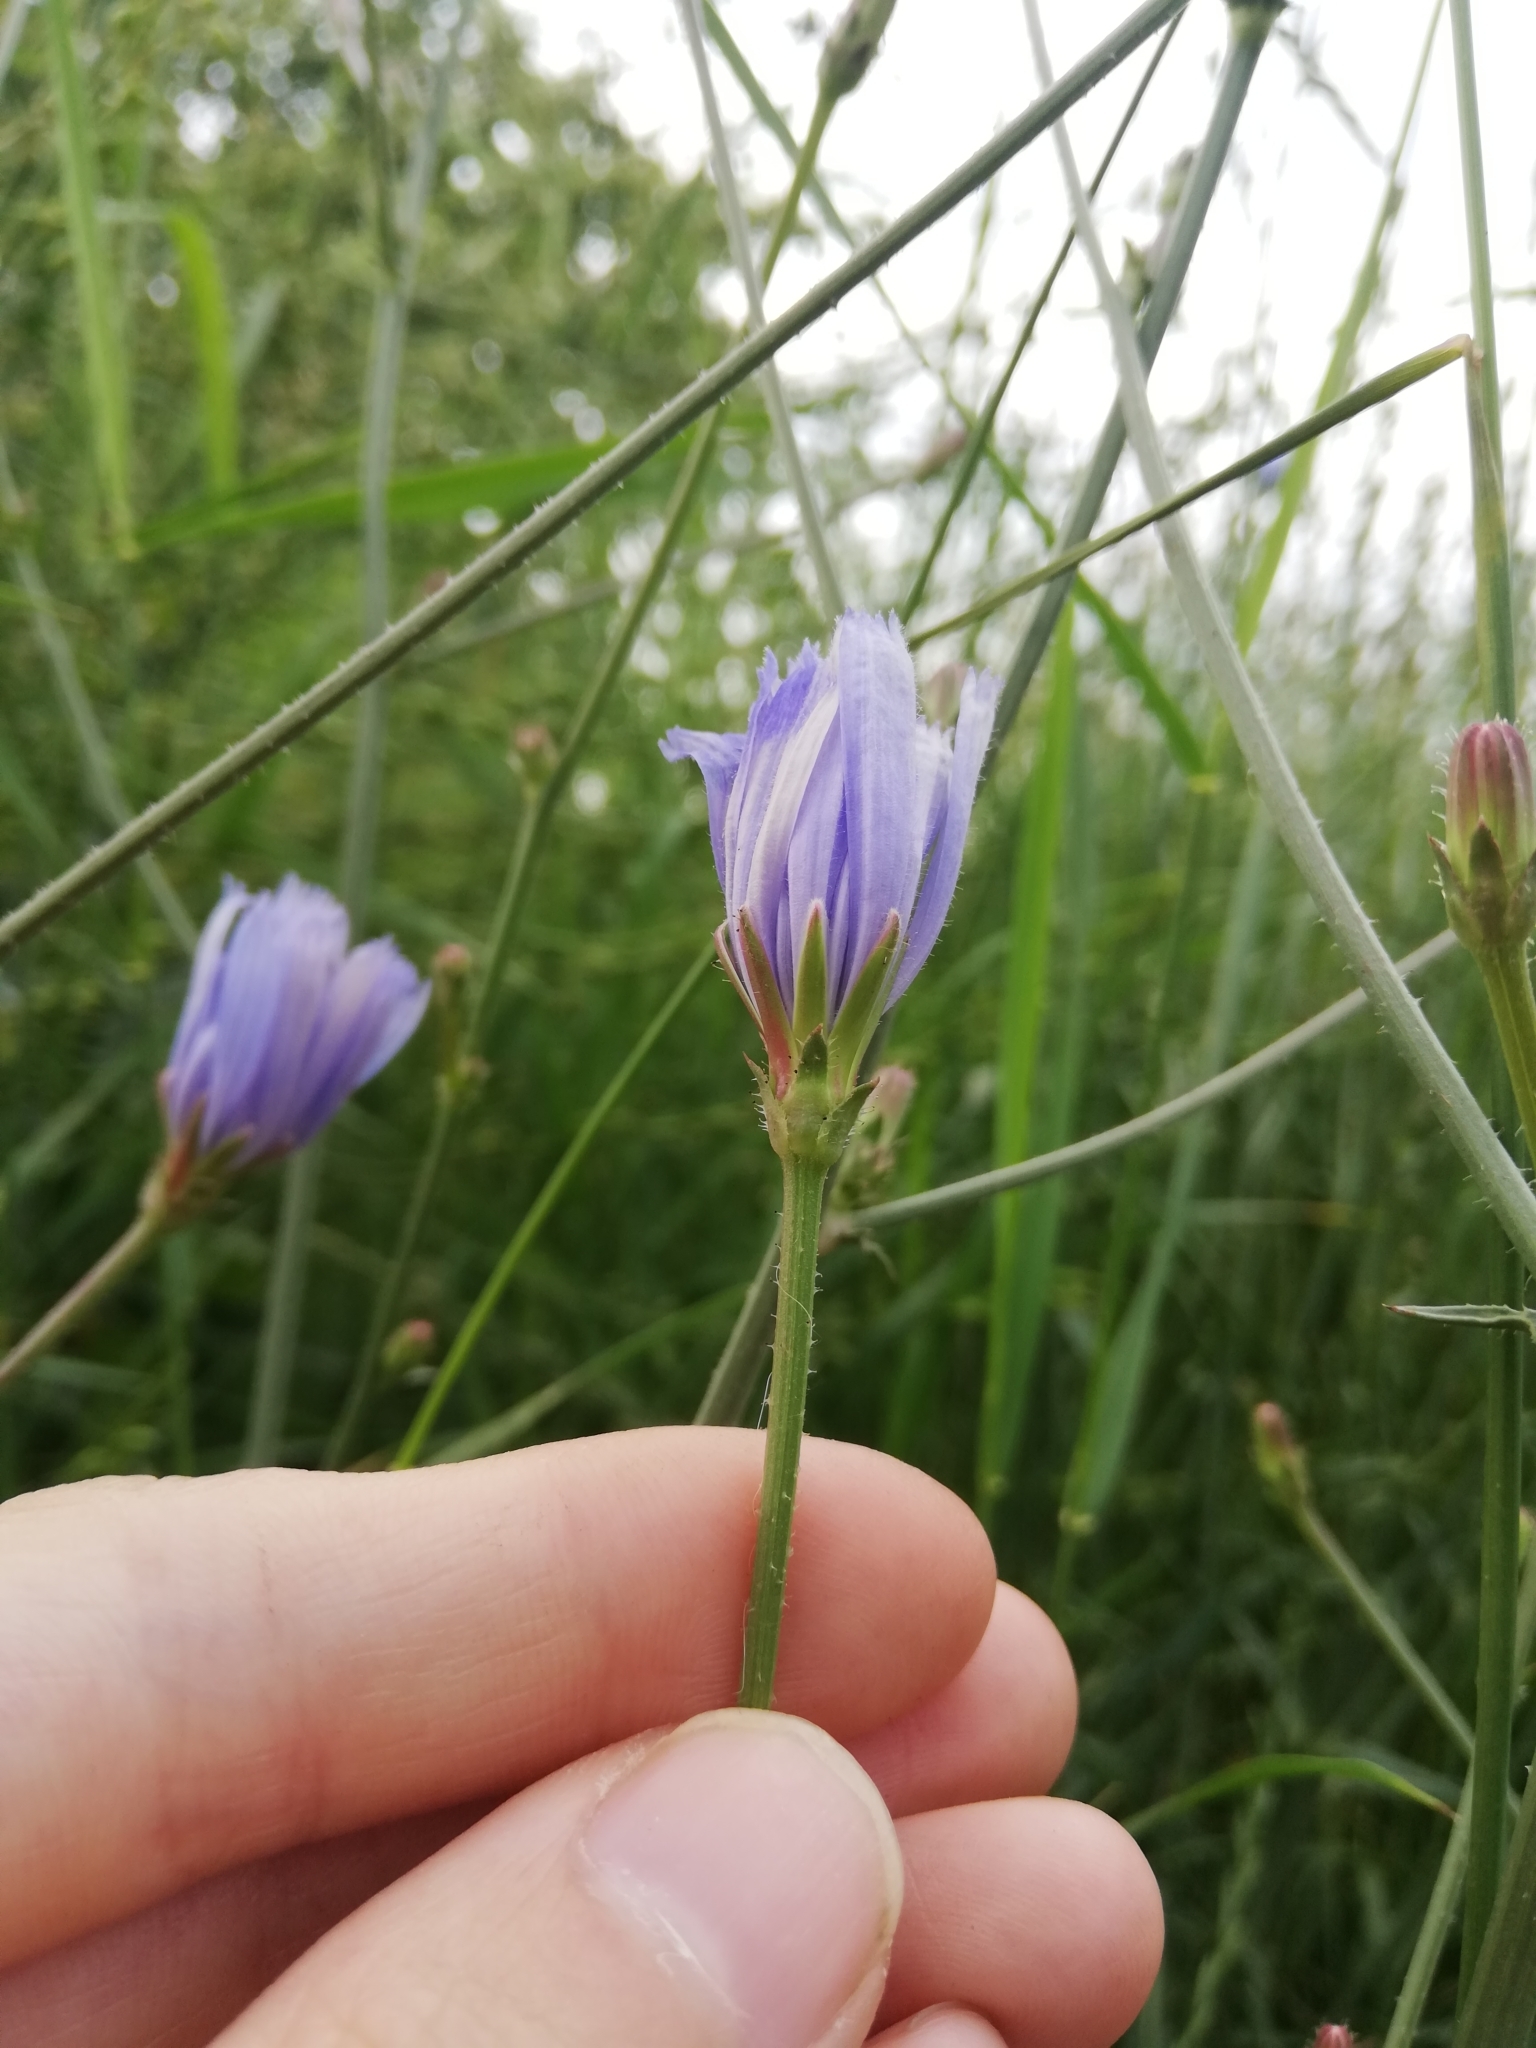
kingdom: Plantae
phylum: Tracheophyta
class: Magnoliopsida
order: Asterales
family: Asteraceae
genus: Cichorium
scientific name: Cichorium intybus
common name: Chicory
